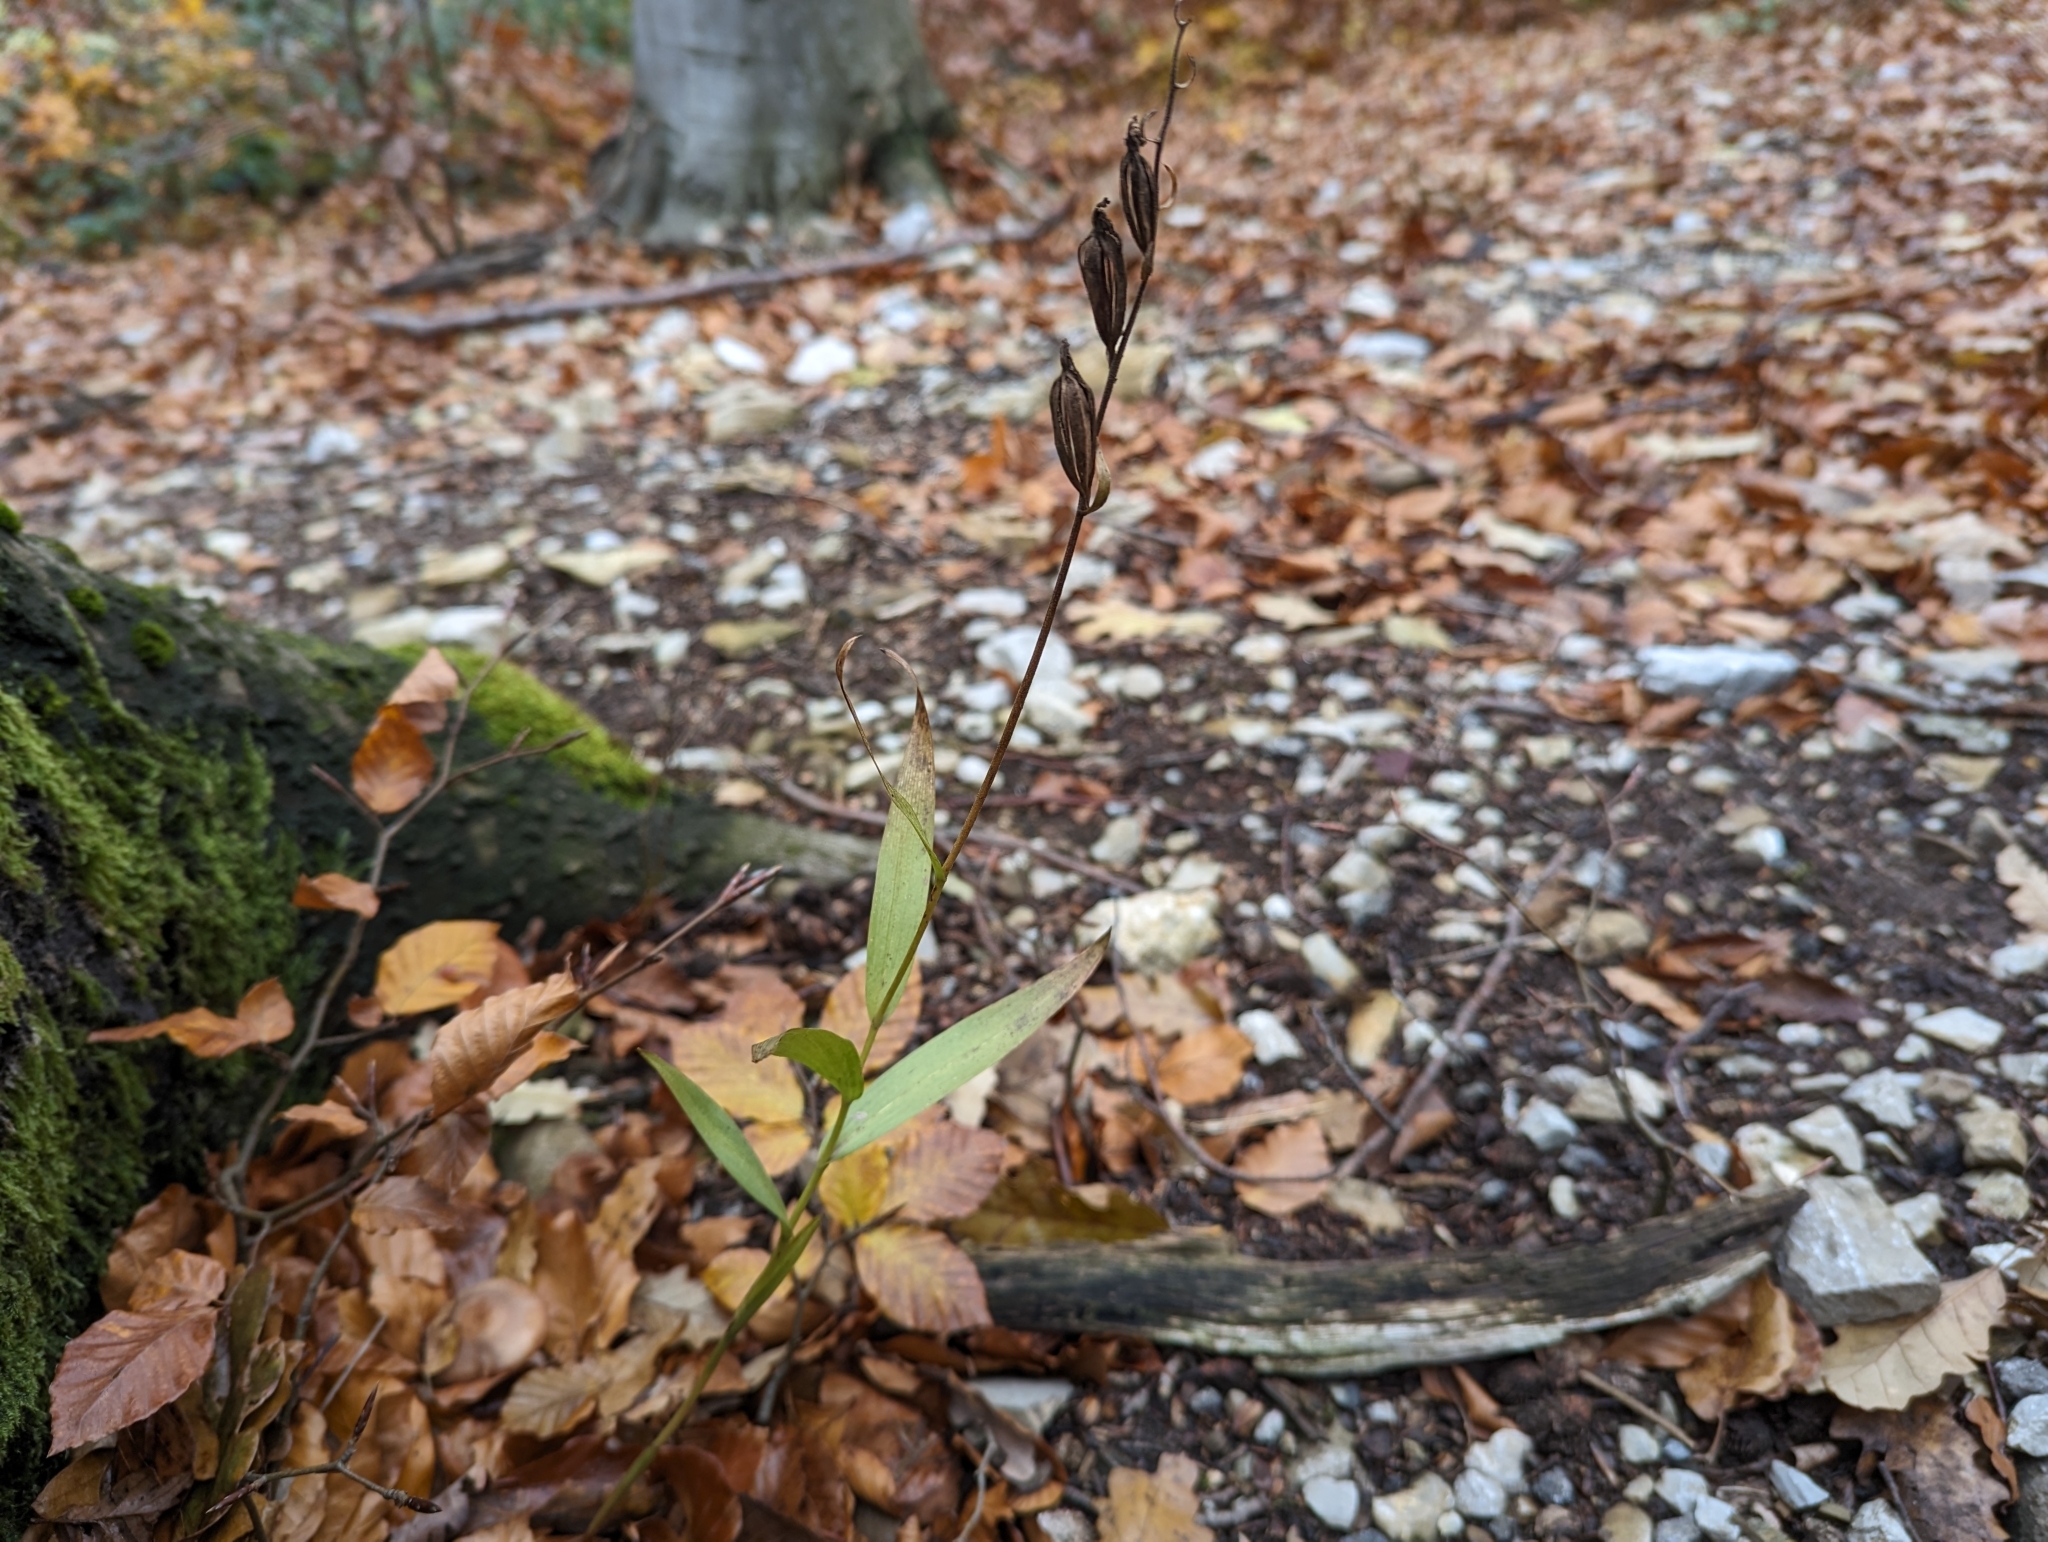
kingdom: Plantae
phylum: Tracheophyta
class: Liliopsida
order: Asparagales
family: Orchidaceae
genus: Cephalanthera
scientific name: Cephalanthera rubra
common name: Red helleborine
